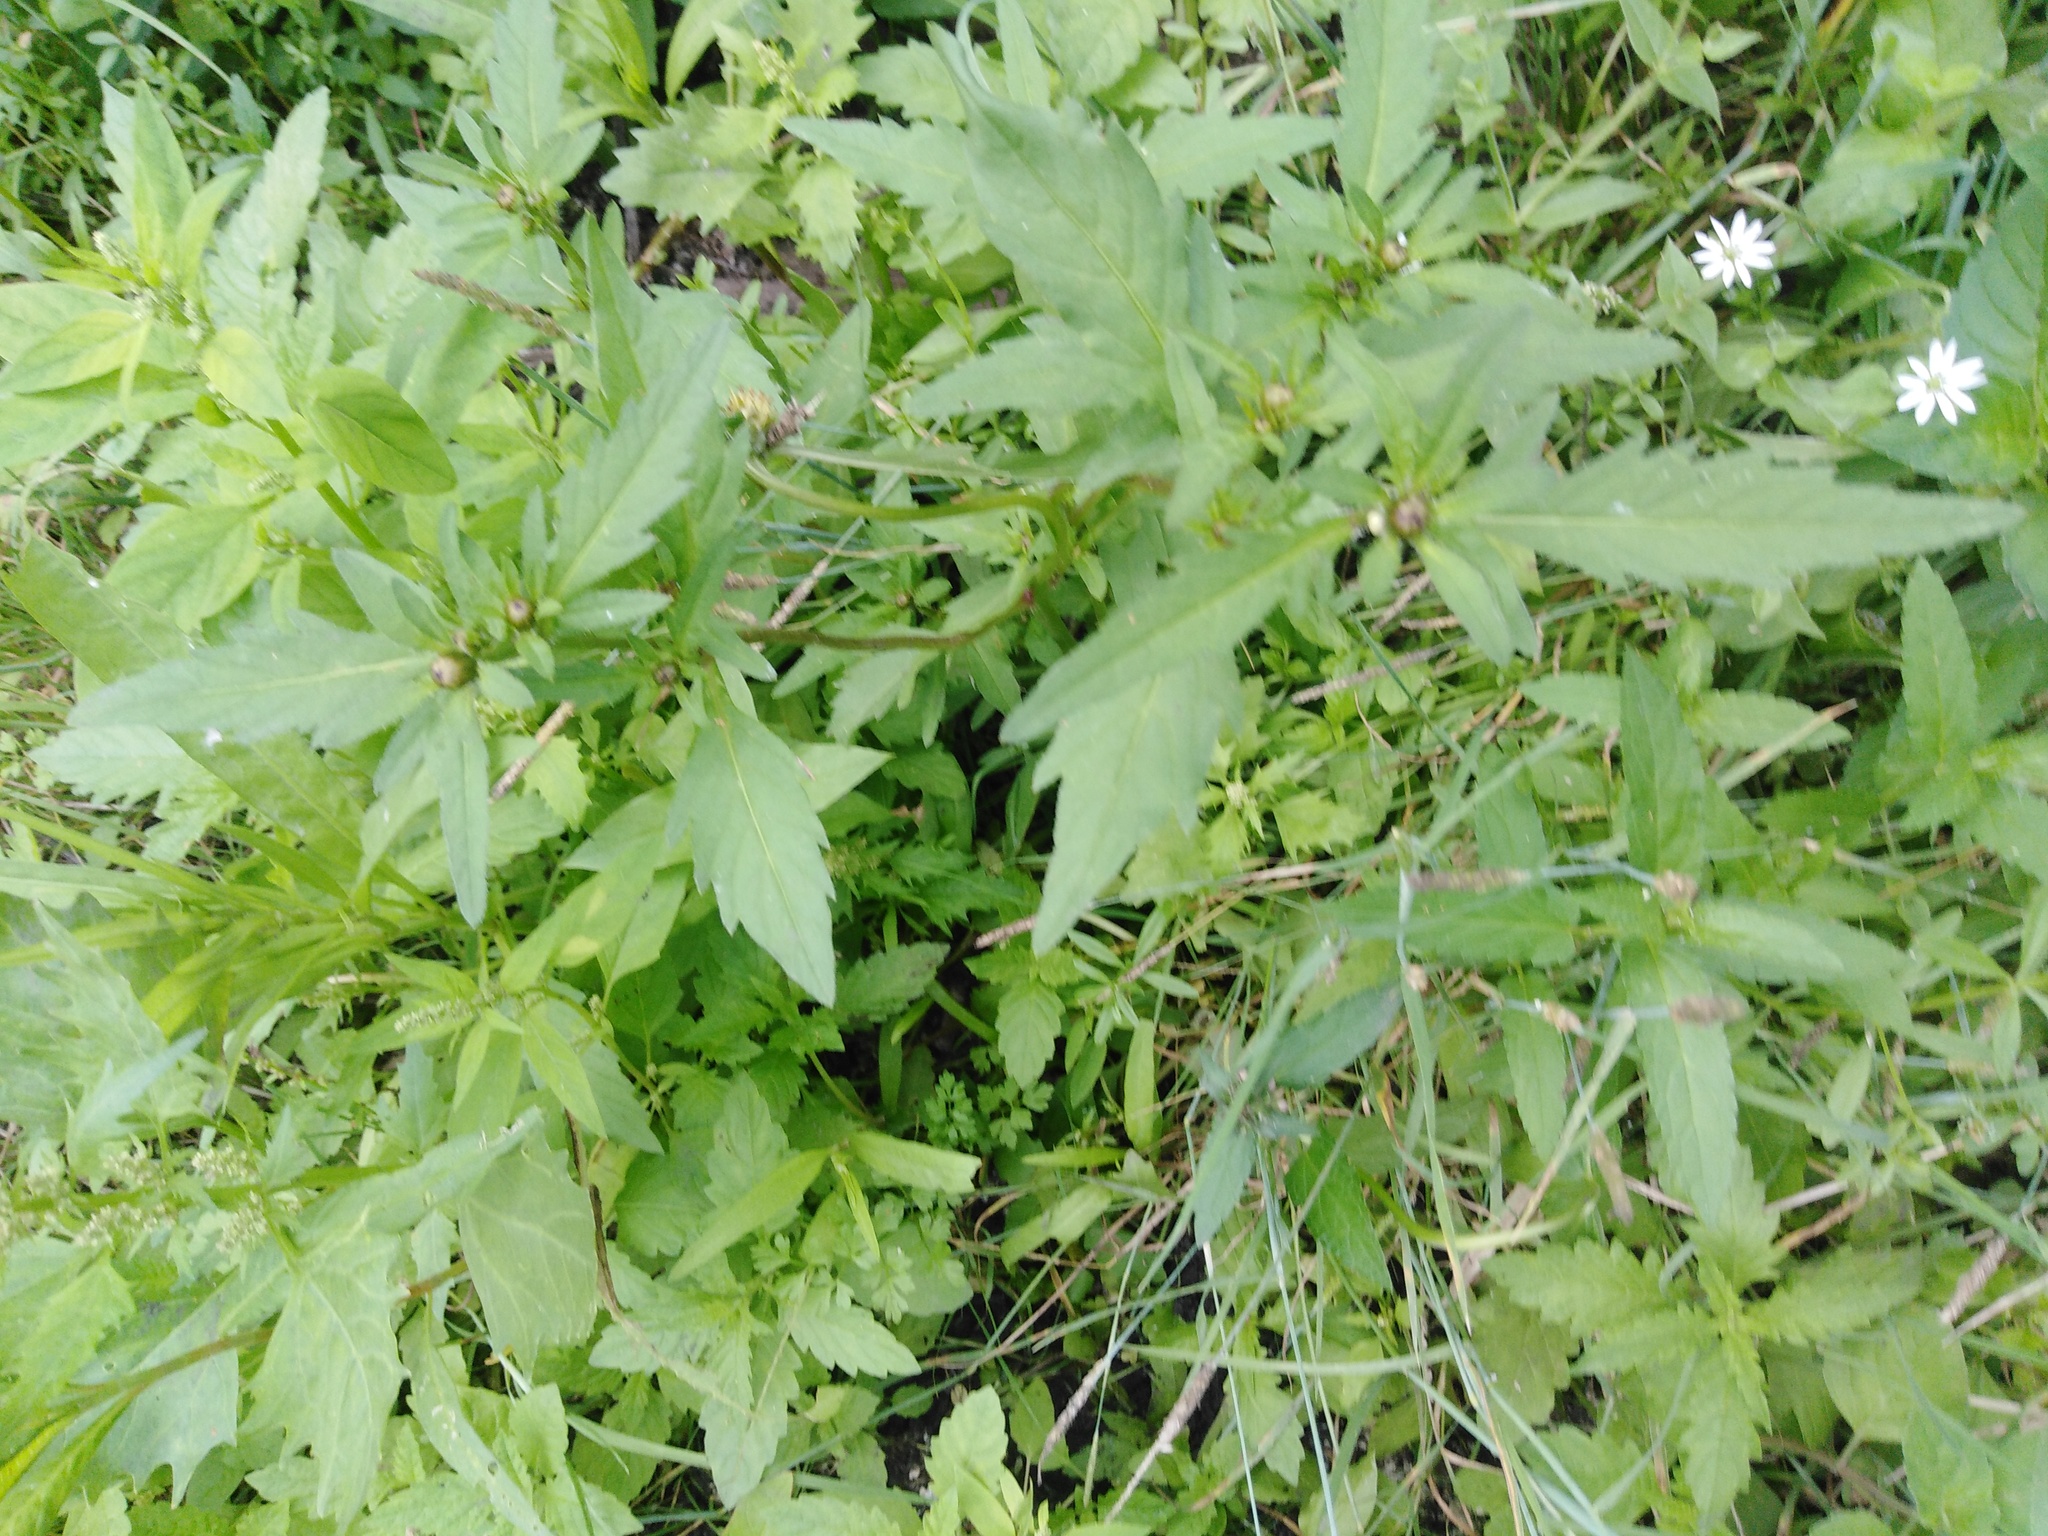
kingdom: Plantae
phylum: Tracheophyta
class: Magnoliopsida
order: Asterales
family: Asteraceae
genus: Bidens
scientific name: Bidens tripartita
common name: Trifid bur-marigold
